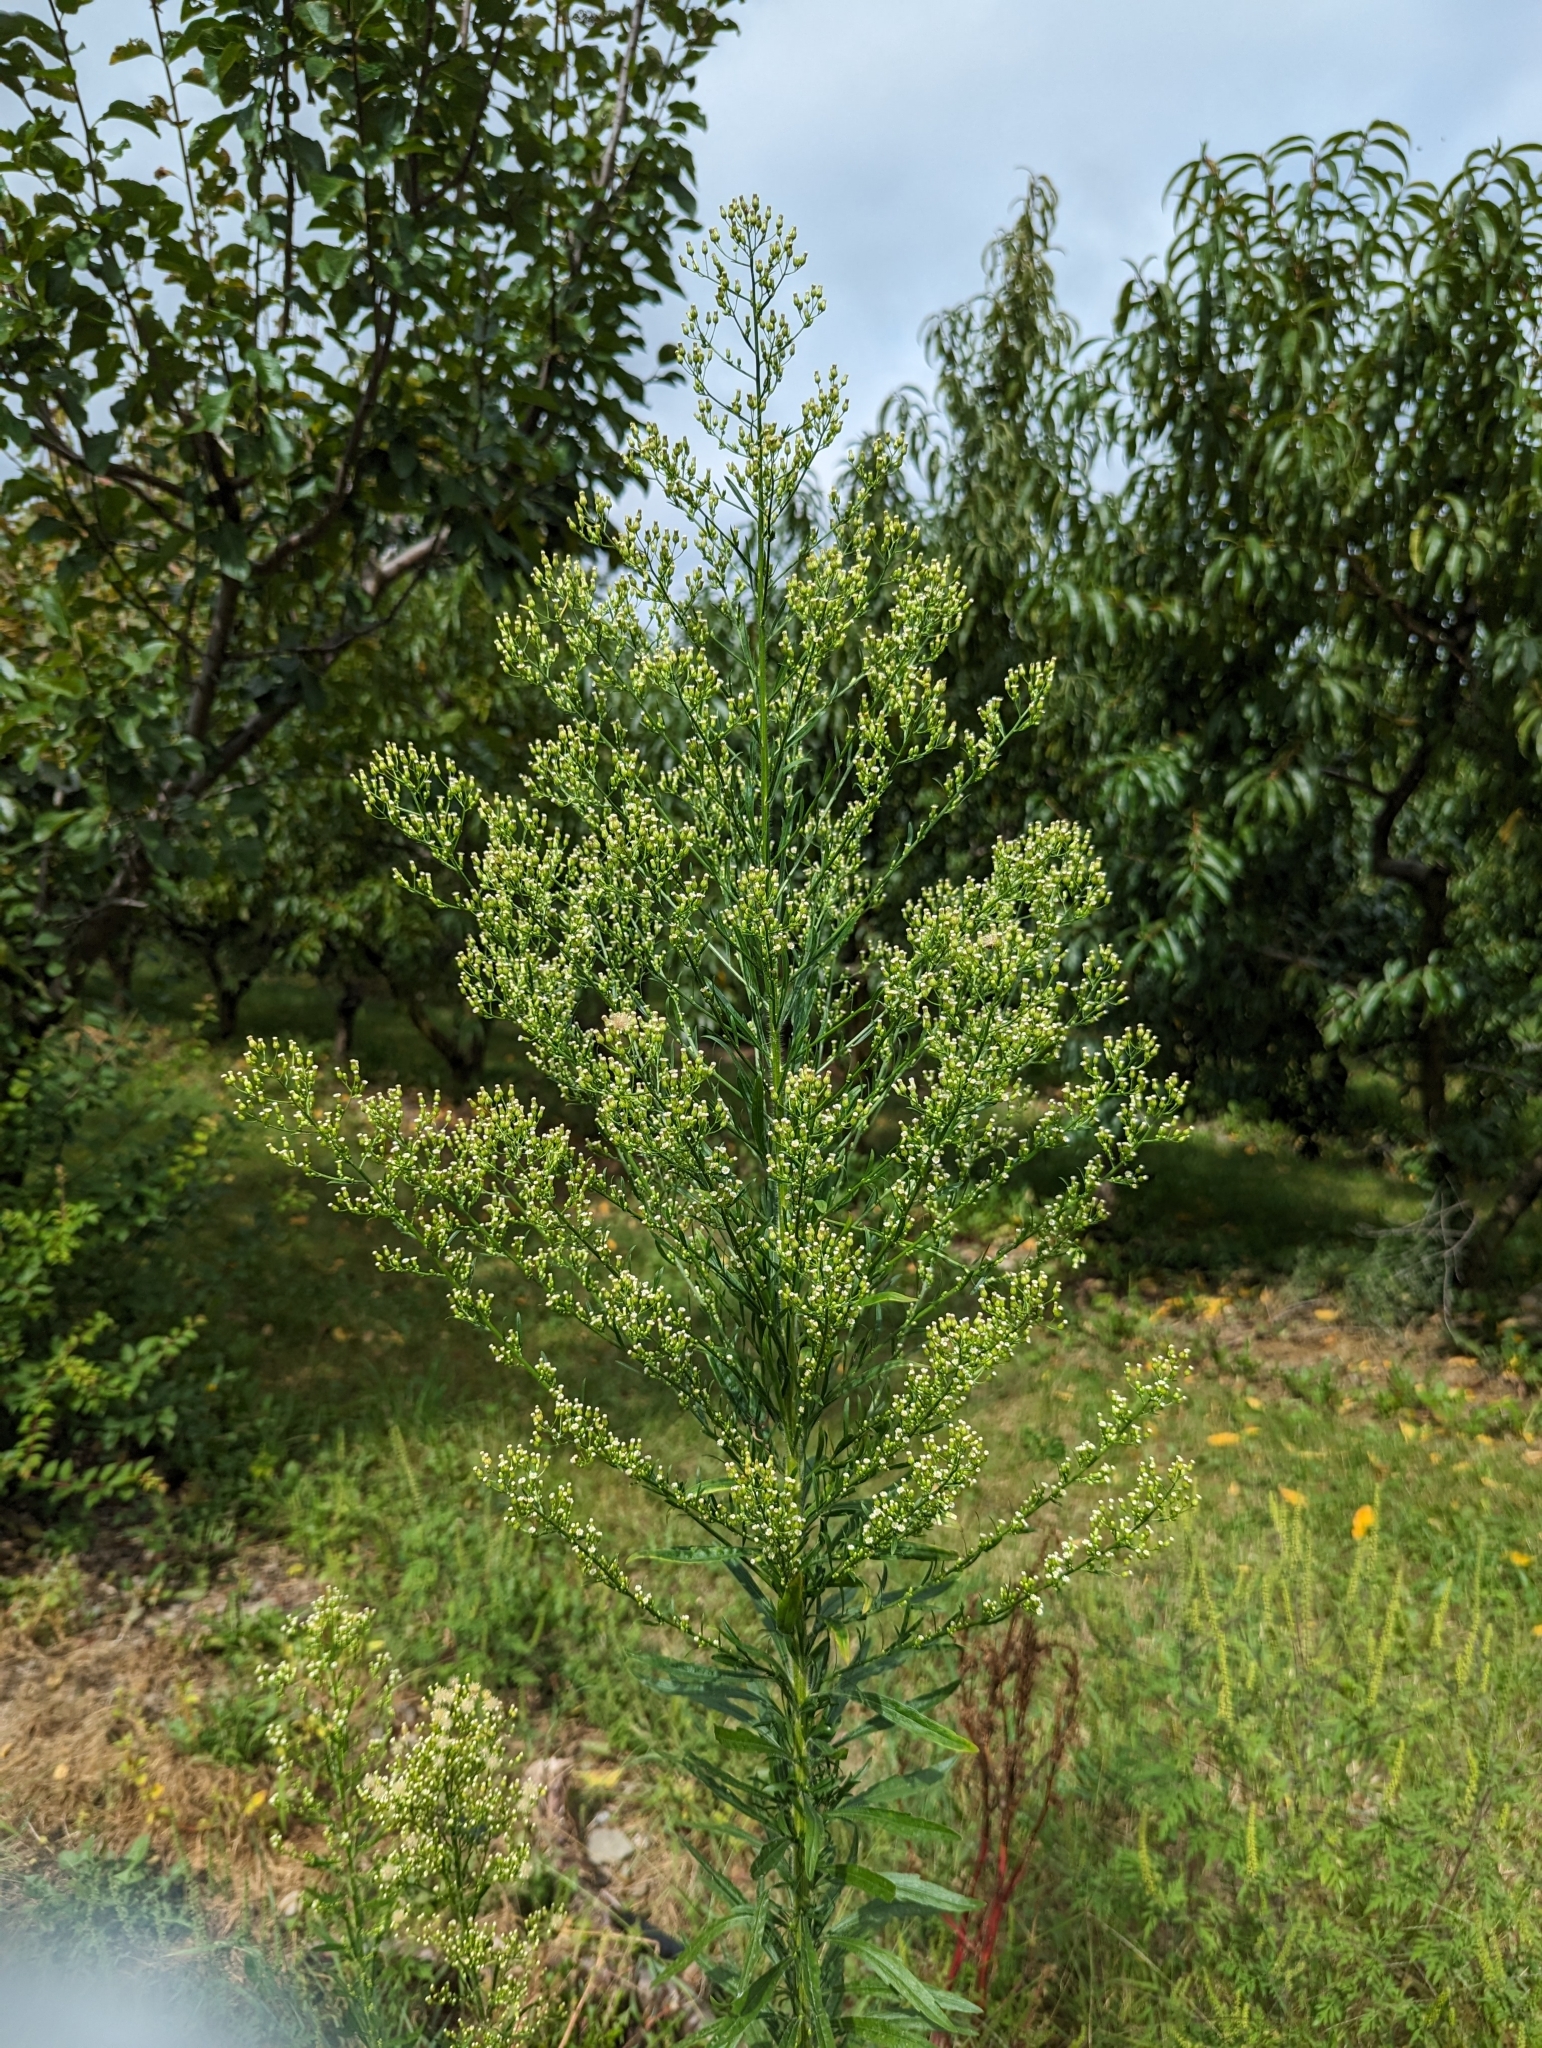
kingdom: Plantae
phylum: Tracheophyta
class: Magnoliopsida
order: Asterales
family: Asteraceae
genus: Erigeron
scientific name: Erigeron canadensis
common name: Canadian fleabane
